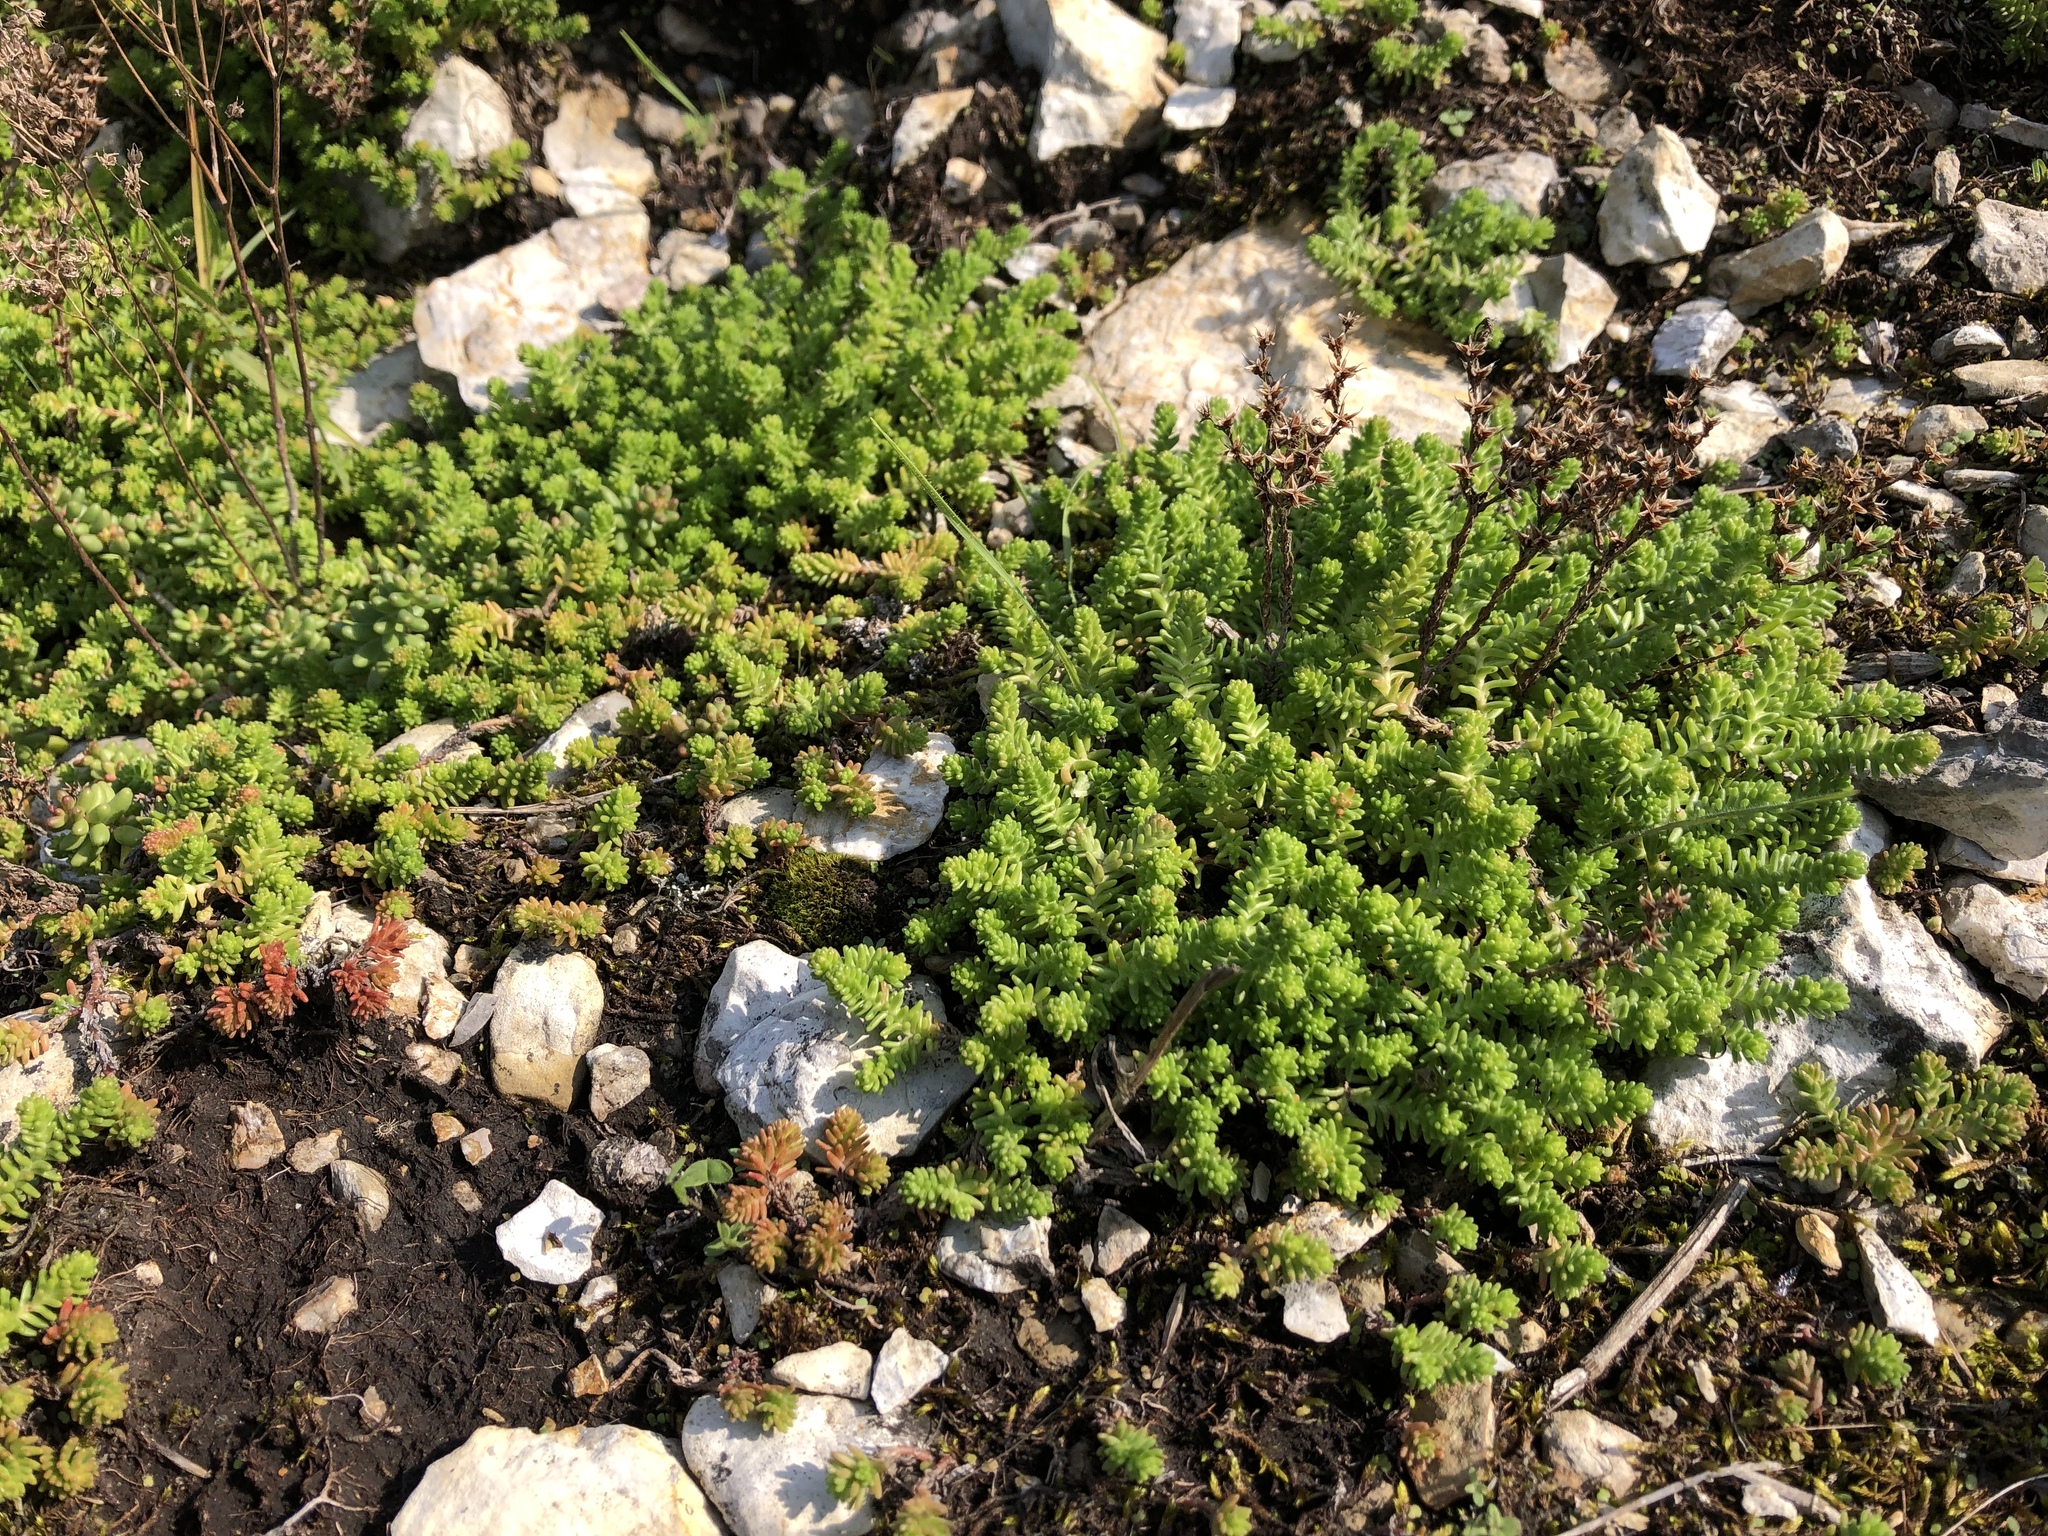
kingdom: Plantae
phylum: Tracheophyta
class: Magnoliopsida
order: Saxifragales
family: Crassulaceae
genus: Sedum
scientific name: Sedum sexangulare
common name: Tasteless stonecrop
